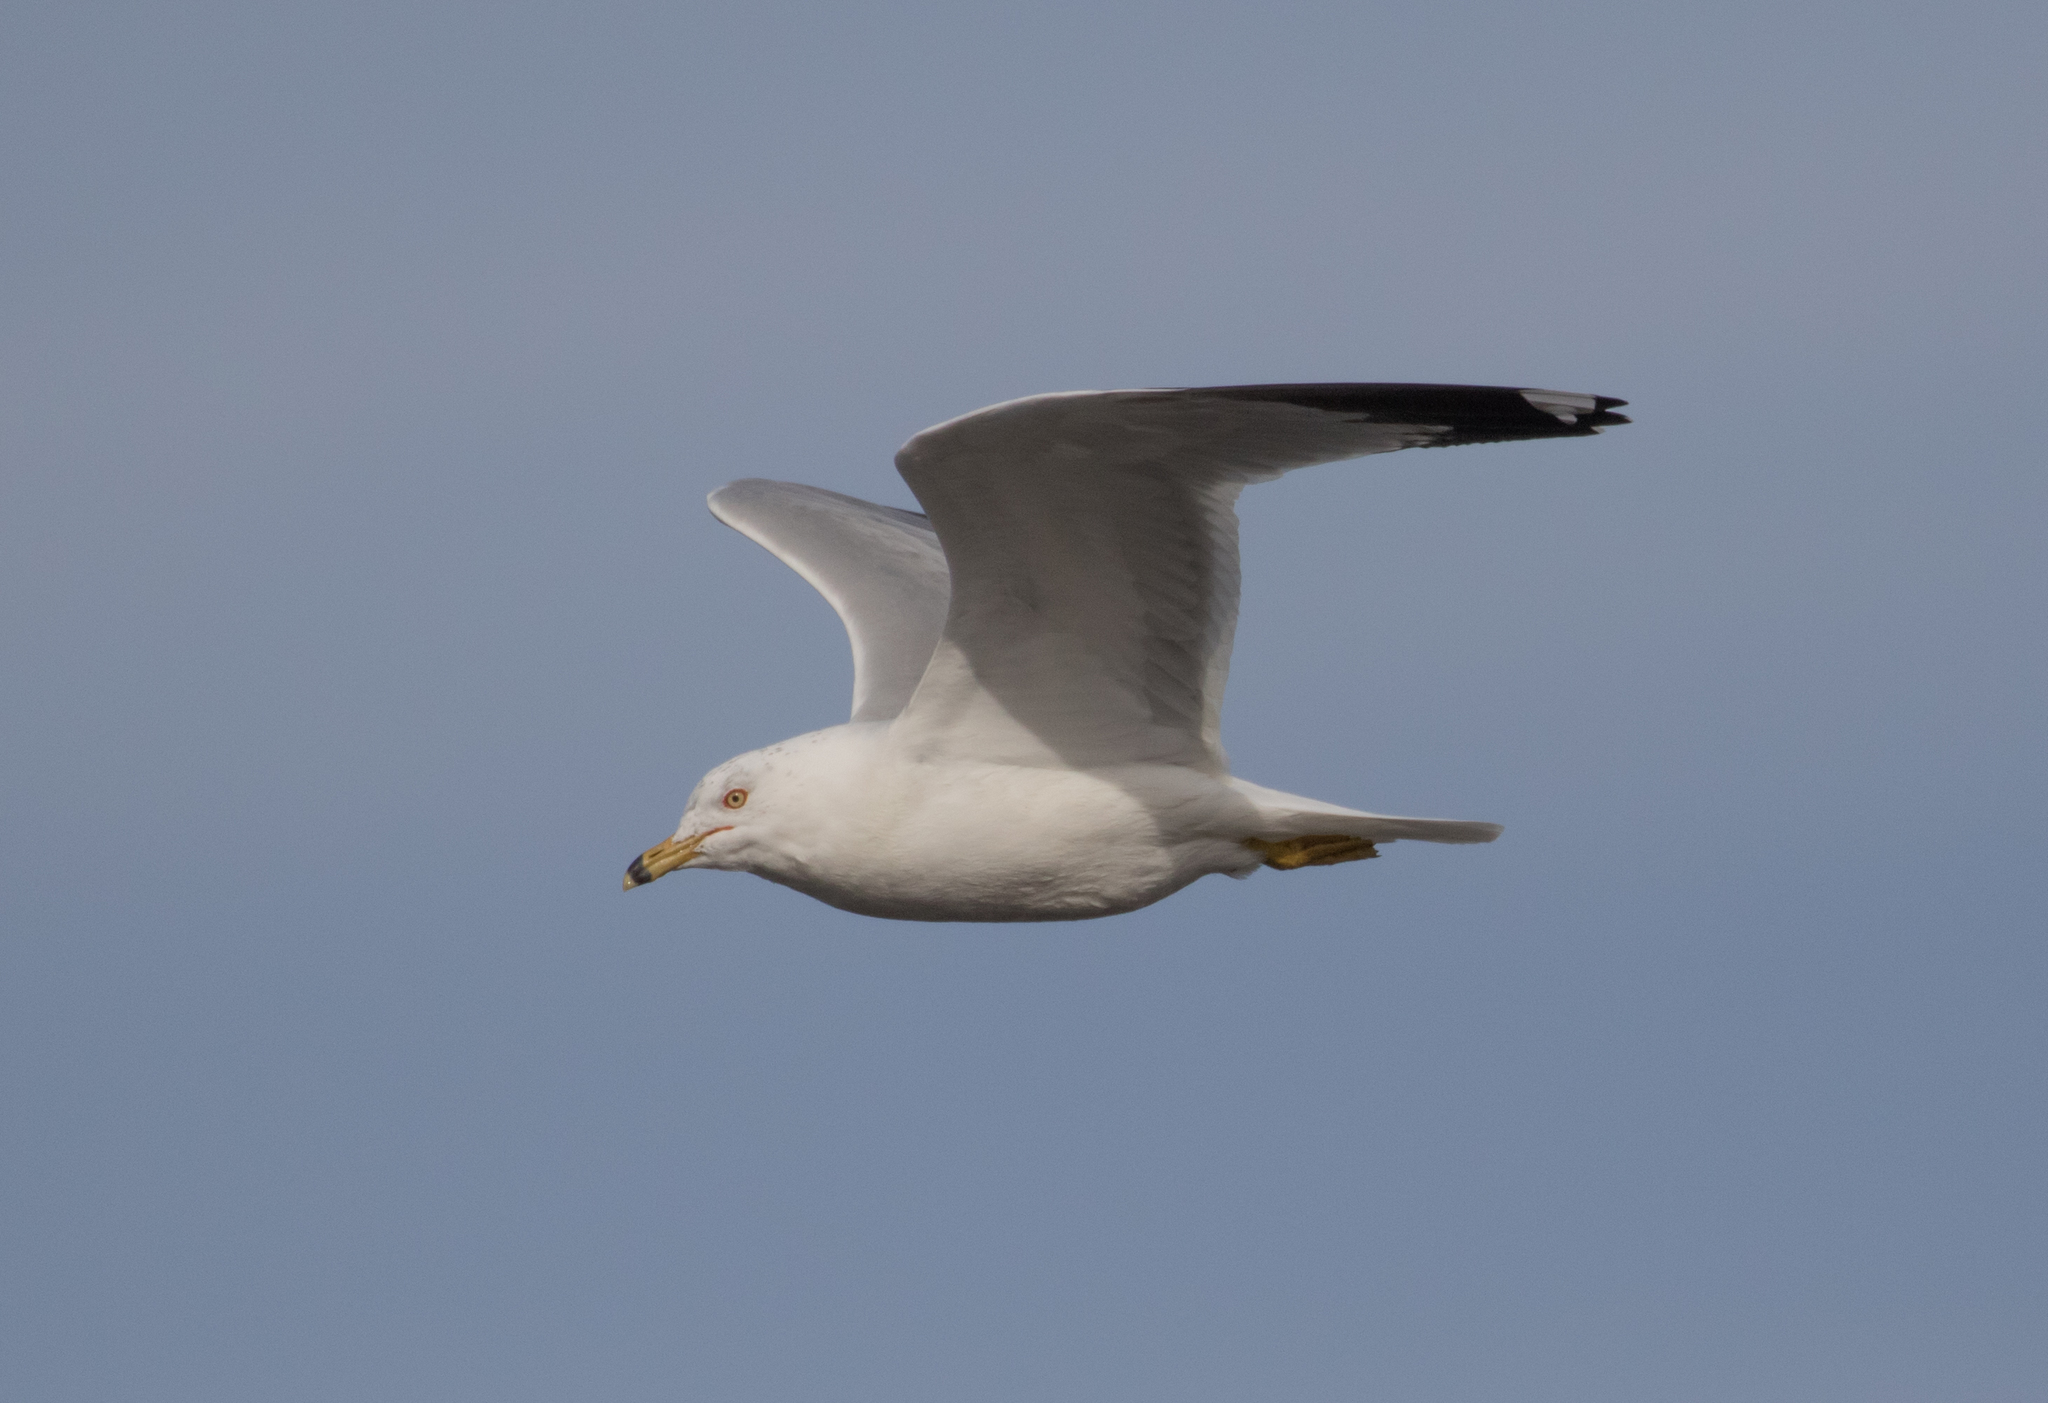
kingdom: Animalia
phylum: Chordata
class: Aves
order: Charadriiformes
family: Laridae
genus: Larus
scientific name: Larus delawarensis
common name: Ring-billed gull
